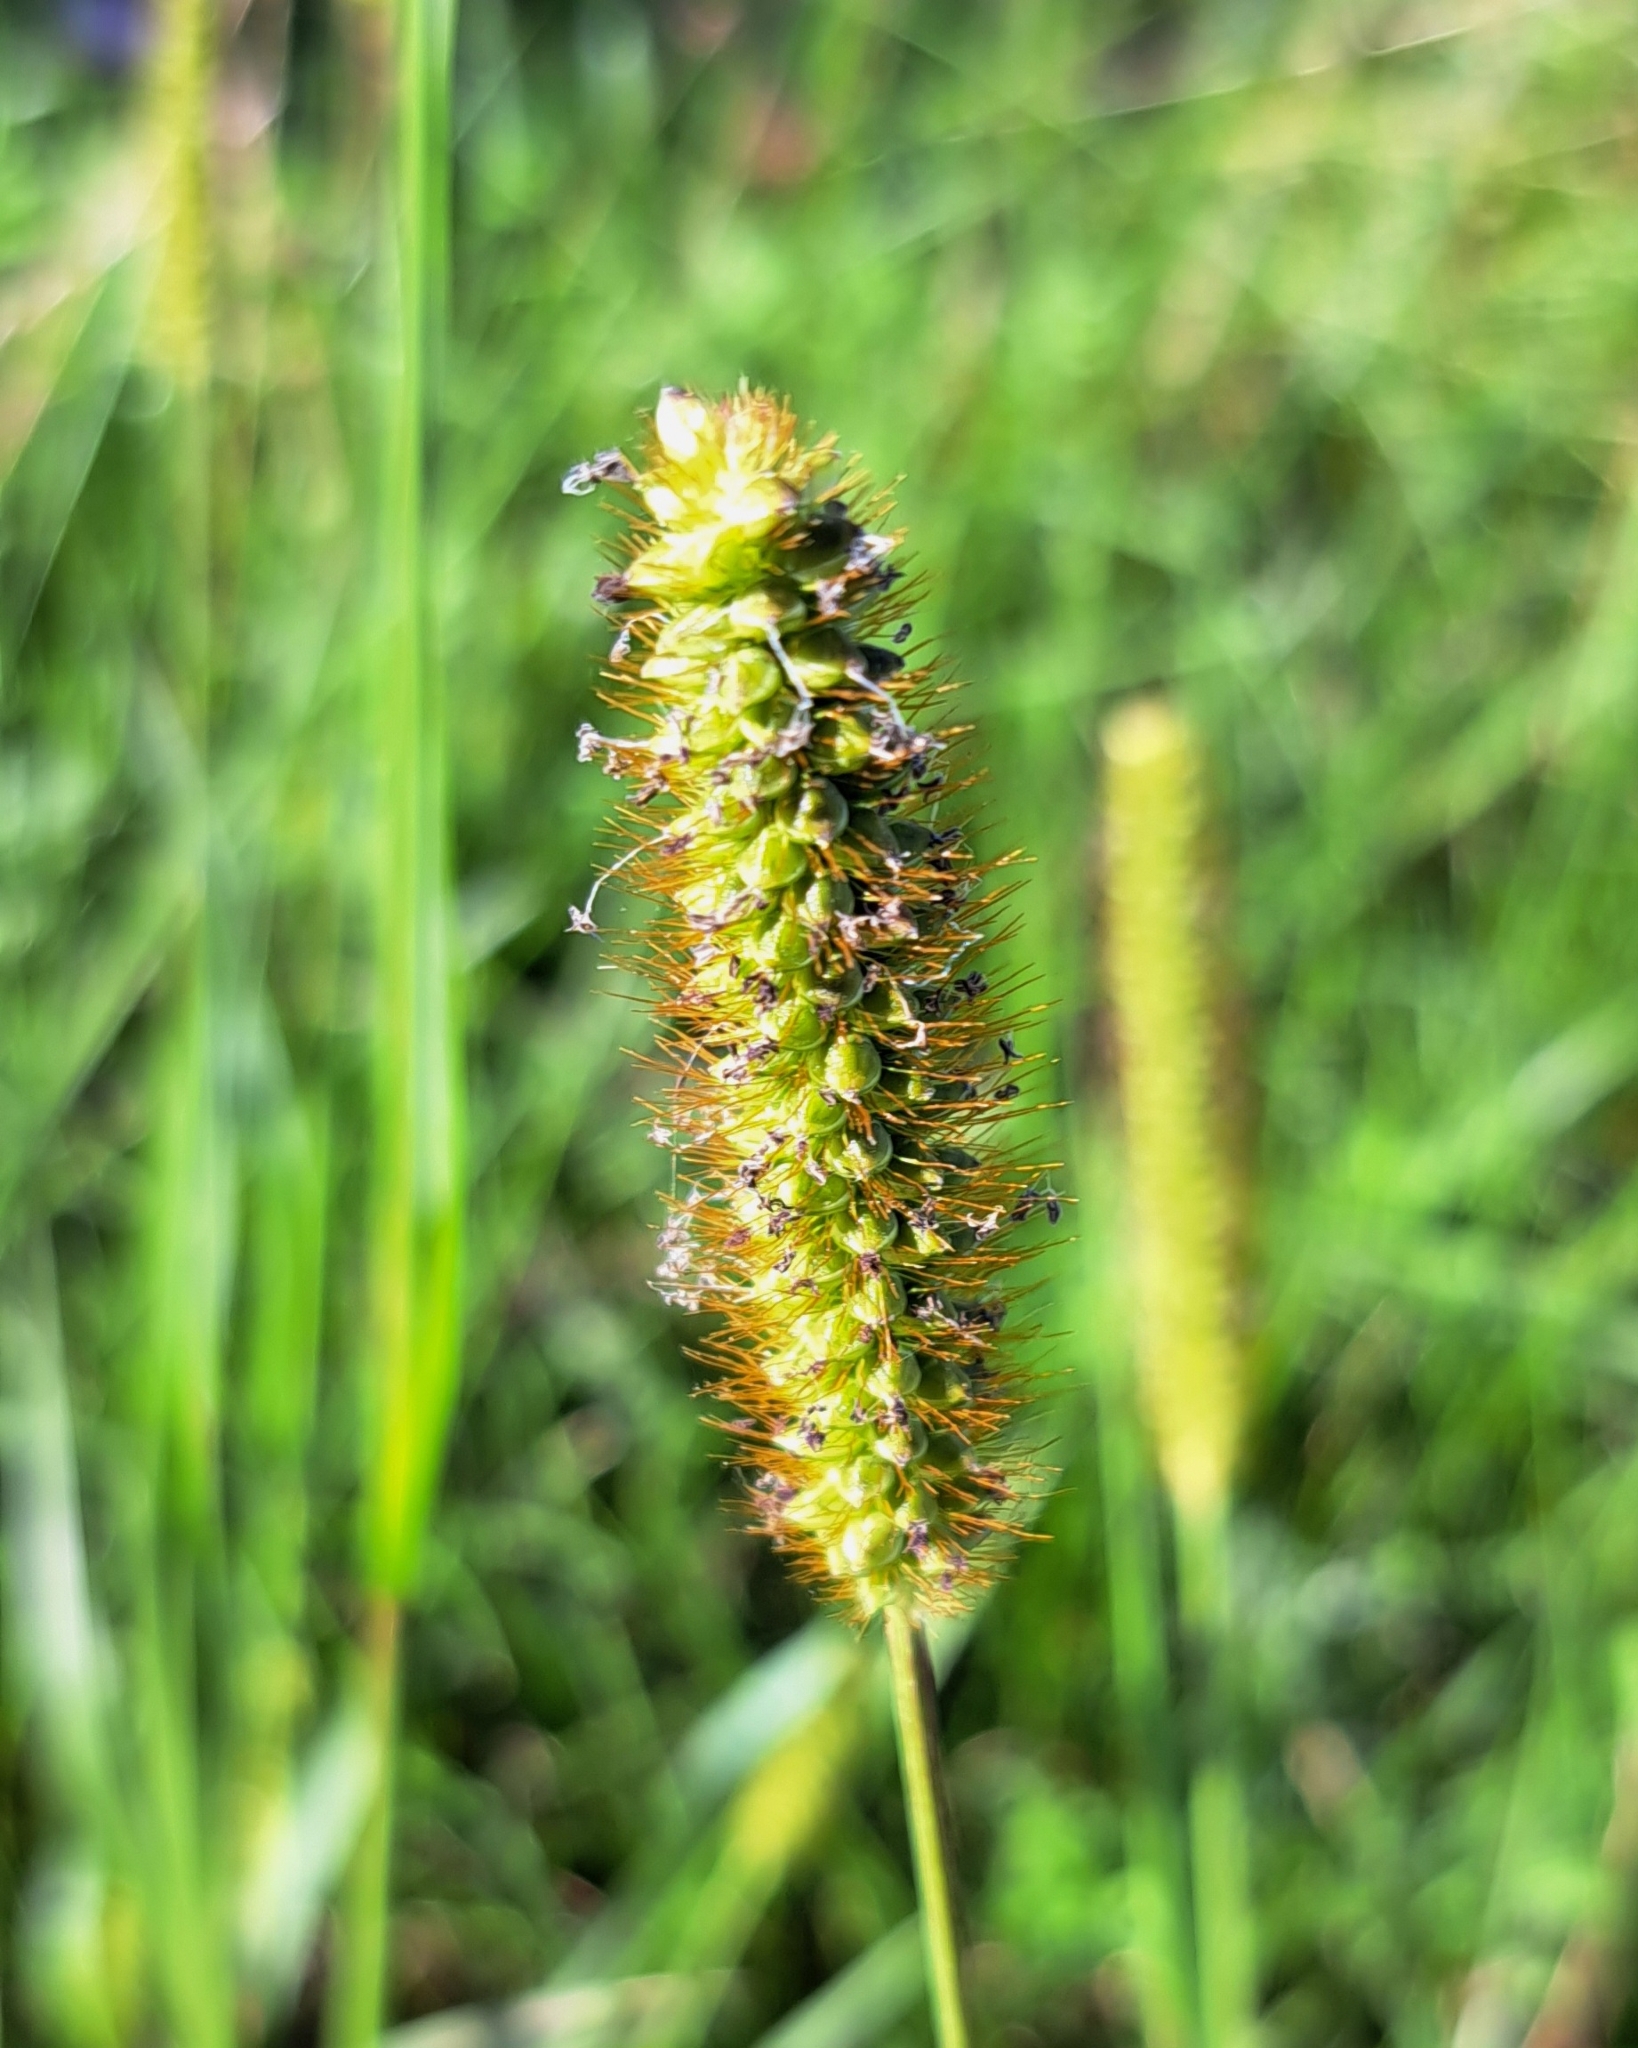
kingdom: Plantae
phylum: Tracheophyta
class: Liliopsida
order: Poales
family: Poaceae
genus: Setaria
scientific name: Setaria pumila
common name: Yellow bristle-grass
